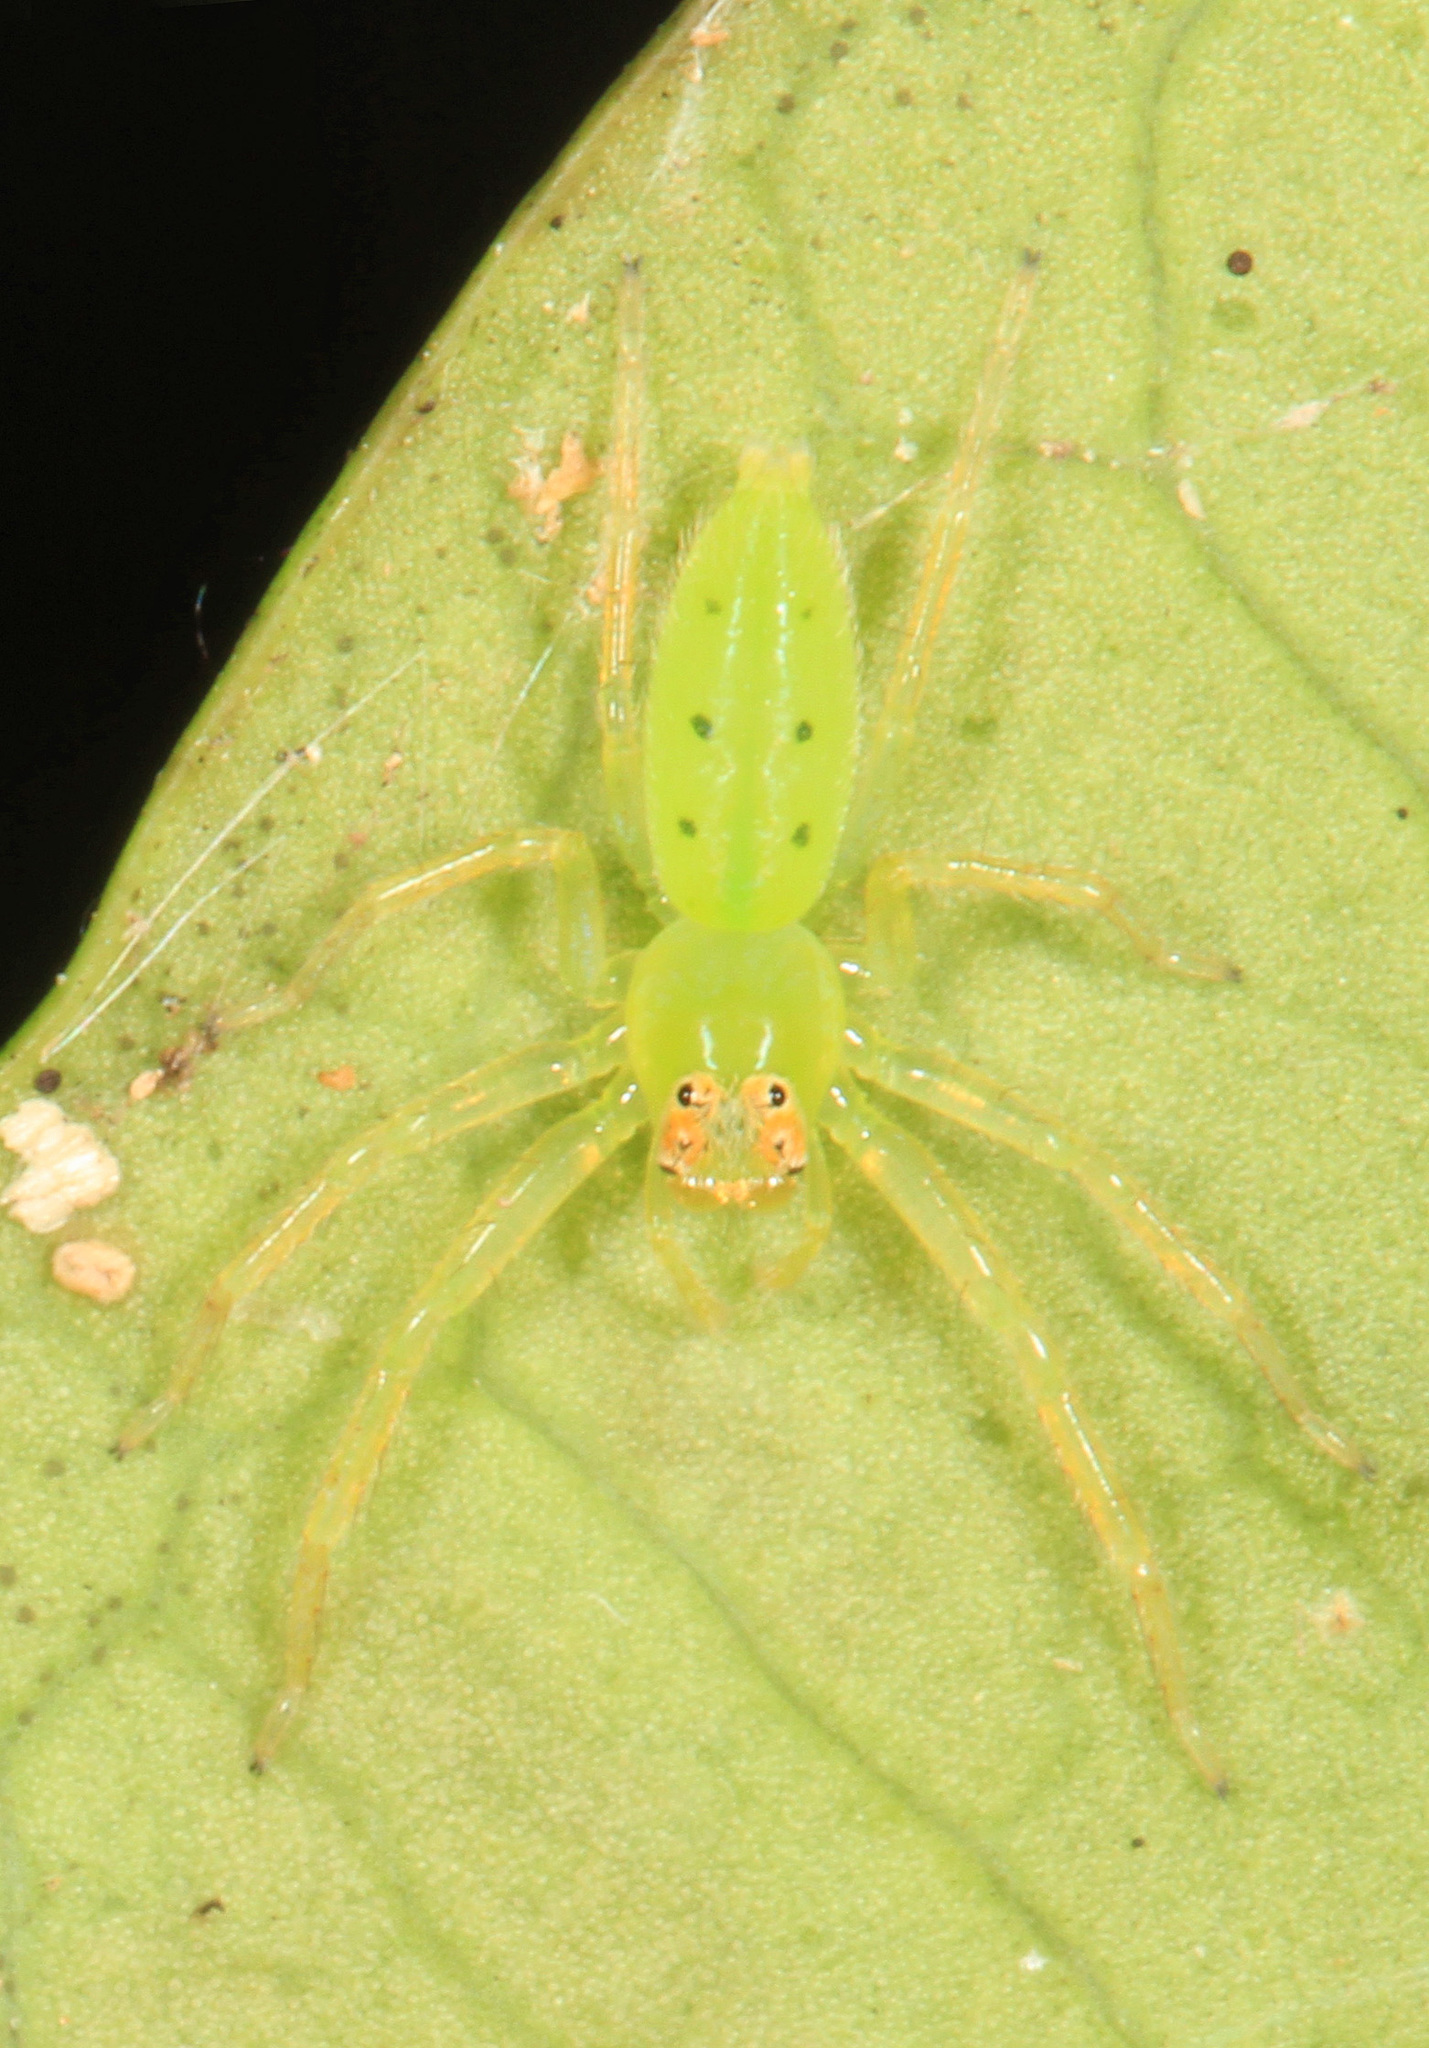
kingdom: Animalia
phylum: Arthropoda
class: Arachnida
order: Araneae
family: Salticidae
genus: Lyssomanes
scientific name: Lyssomanes viridis
